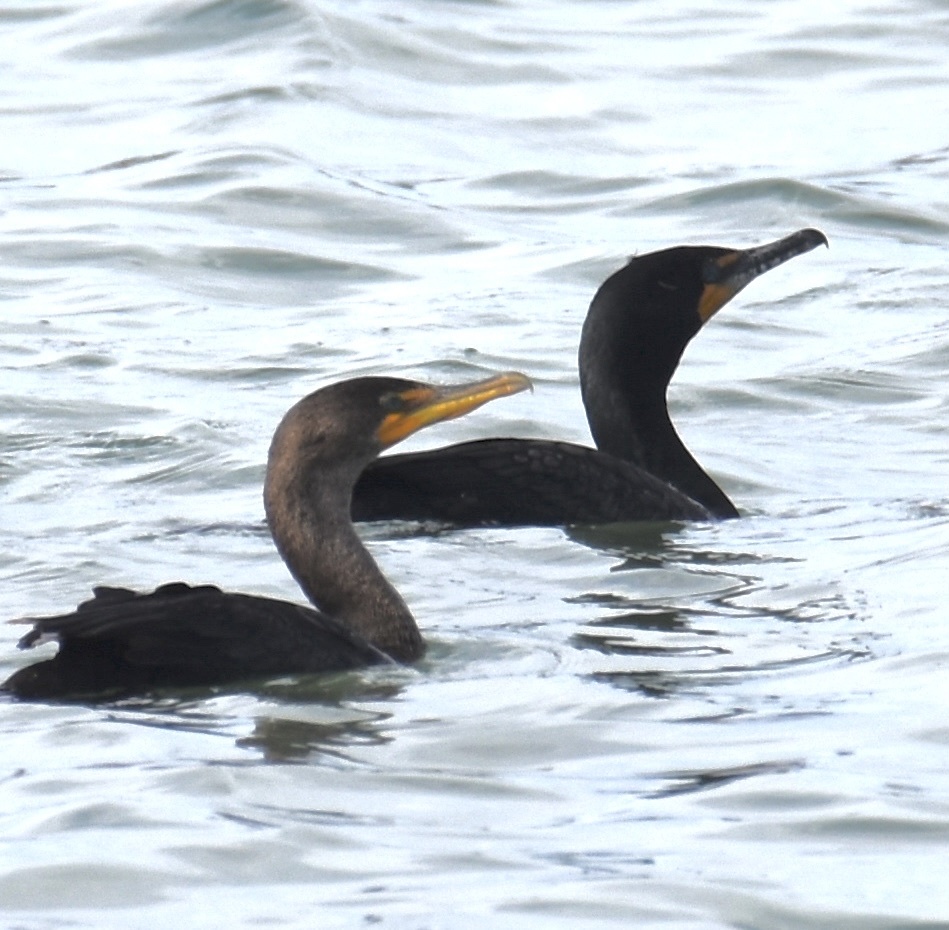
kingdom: Animalia
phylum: Chordata
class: Aves
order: Suliformes
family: Phalacrocoracidae
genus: Phalacrocorax
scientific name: Phalacrocorax auritus
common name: Double-crested cormorant
